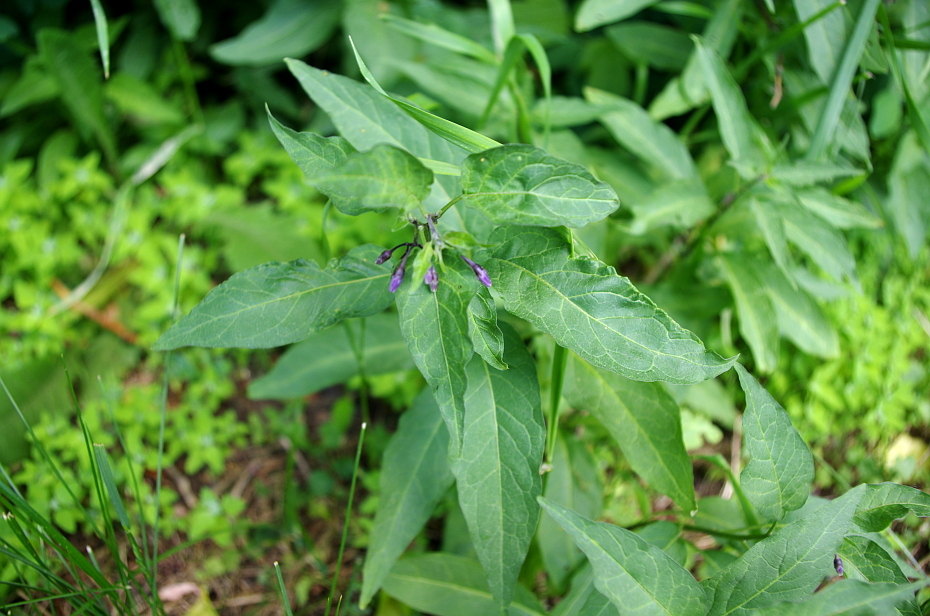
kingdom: Plantae
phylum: Tracheophyta
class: Magnoliopsida
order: Solanales
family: Solanaceae
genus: Solanum
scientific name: Solanum dulcamara
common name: Climbing nightshade
